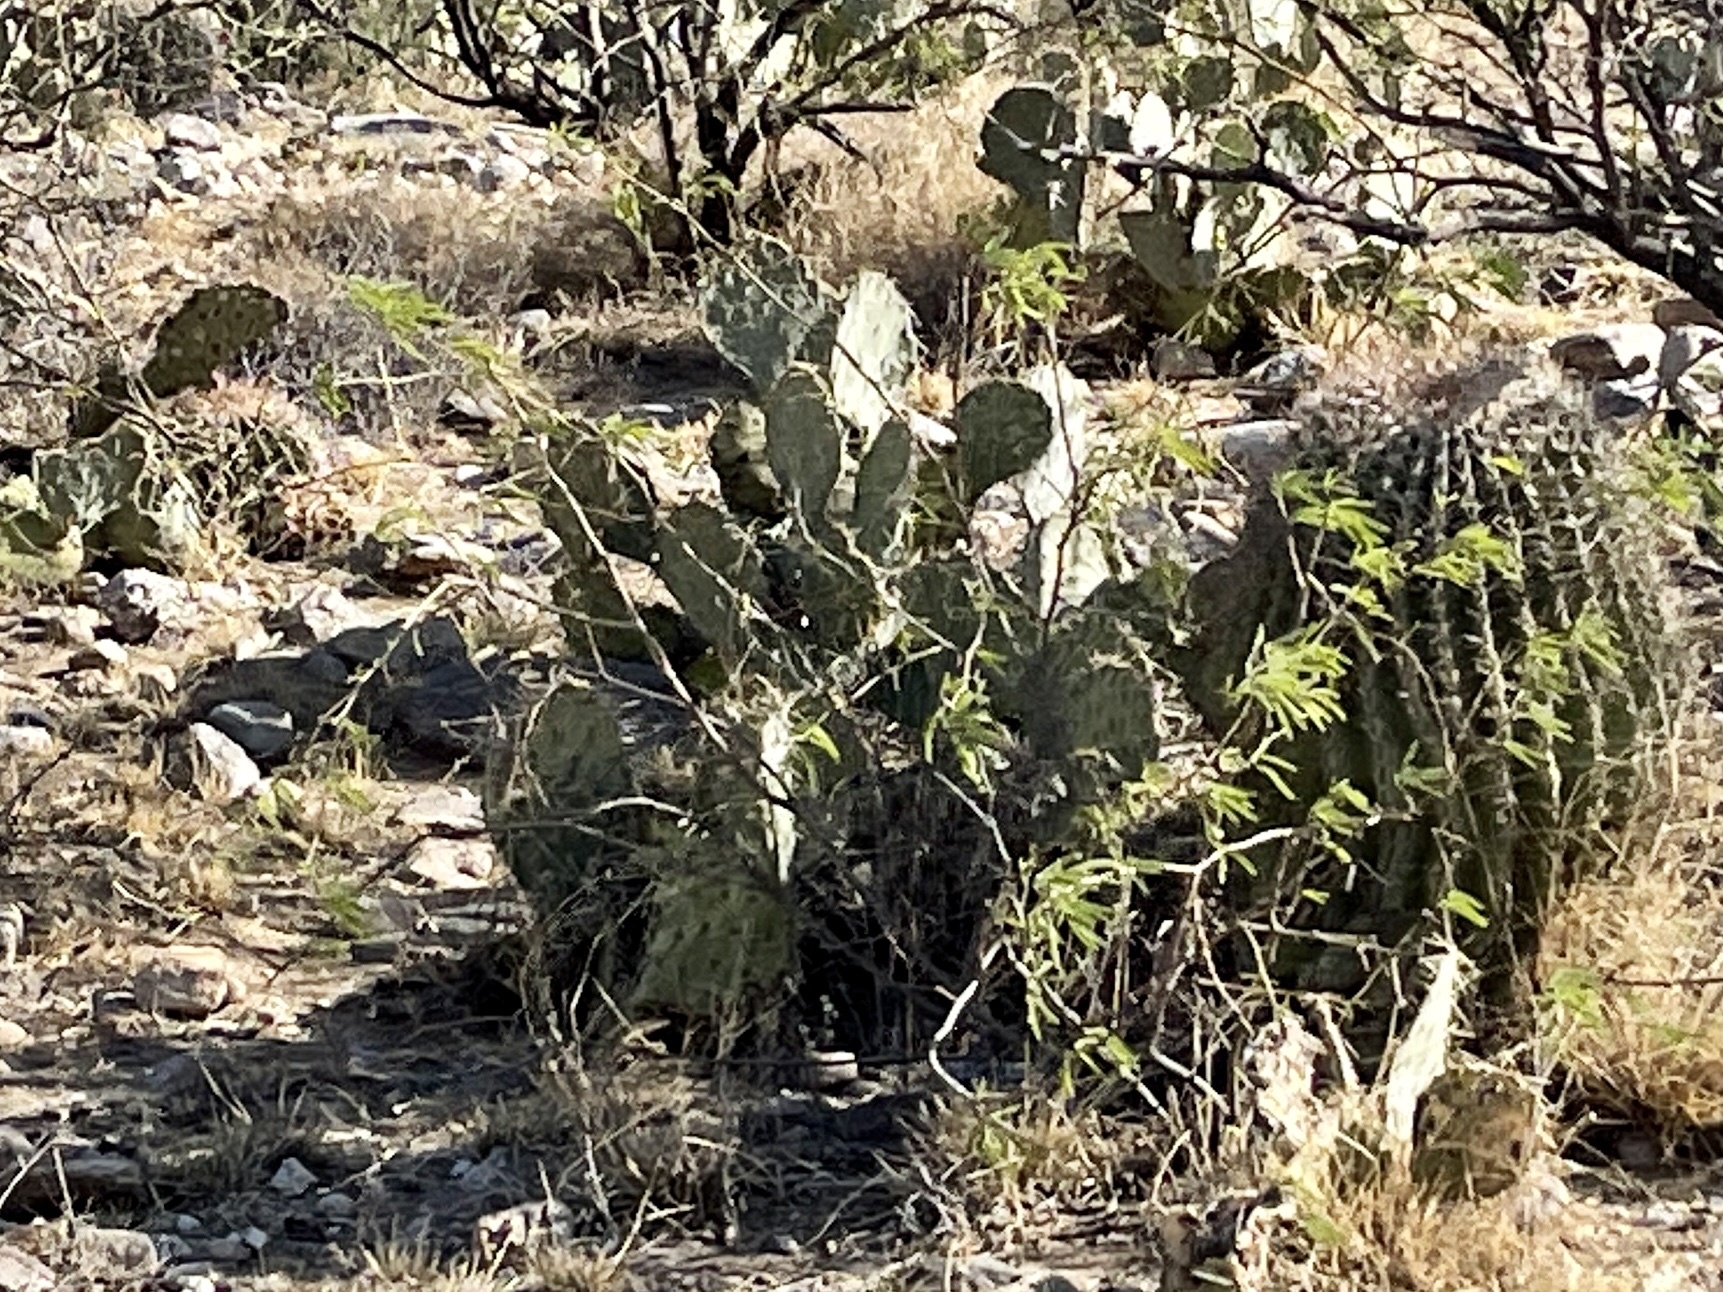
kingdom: Plantae
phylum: Tracheophyta
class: Magnoliopsida
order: Caryophyllales
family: Cactaceae
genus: Opuntia
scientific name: Opuntia engelmannii
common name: Cactus-apple
